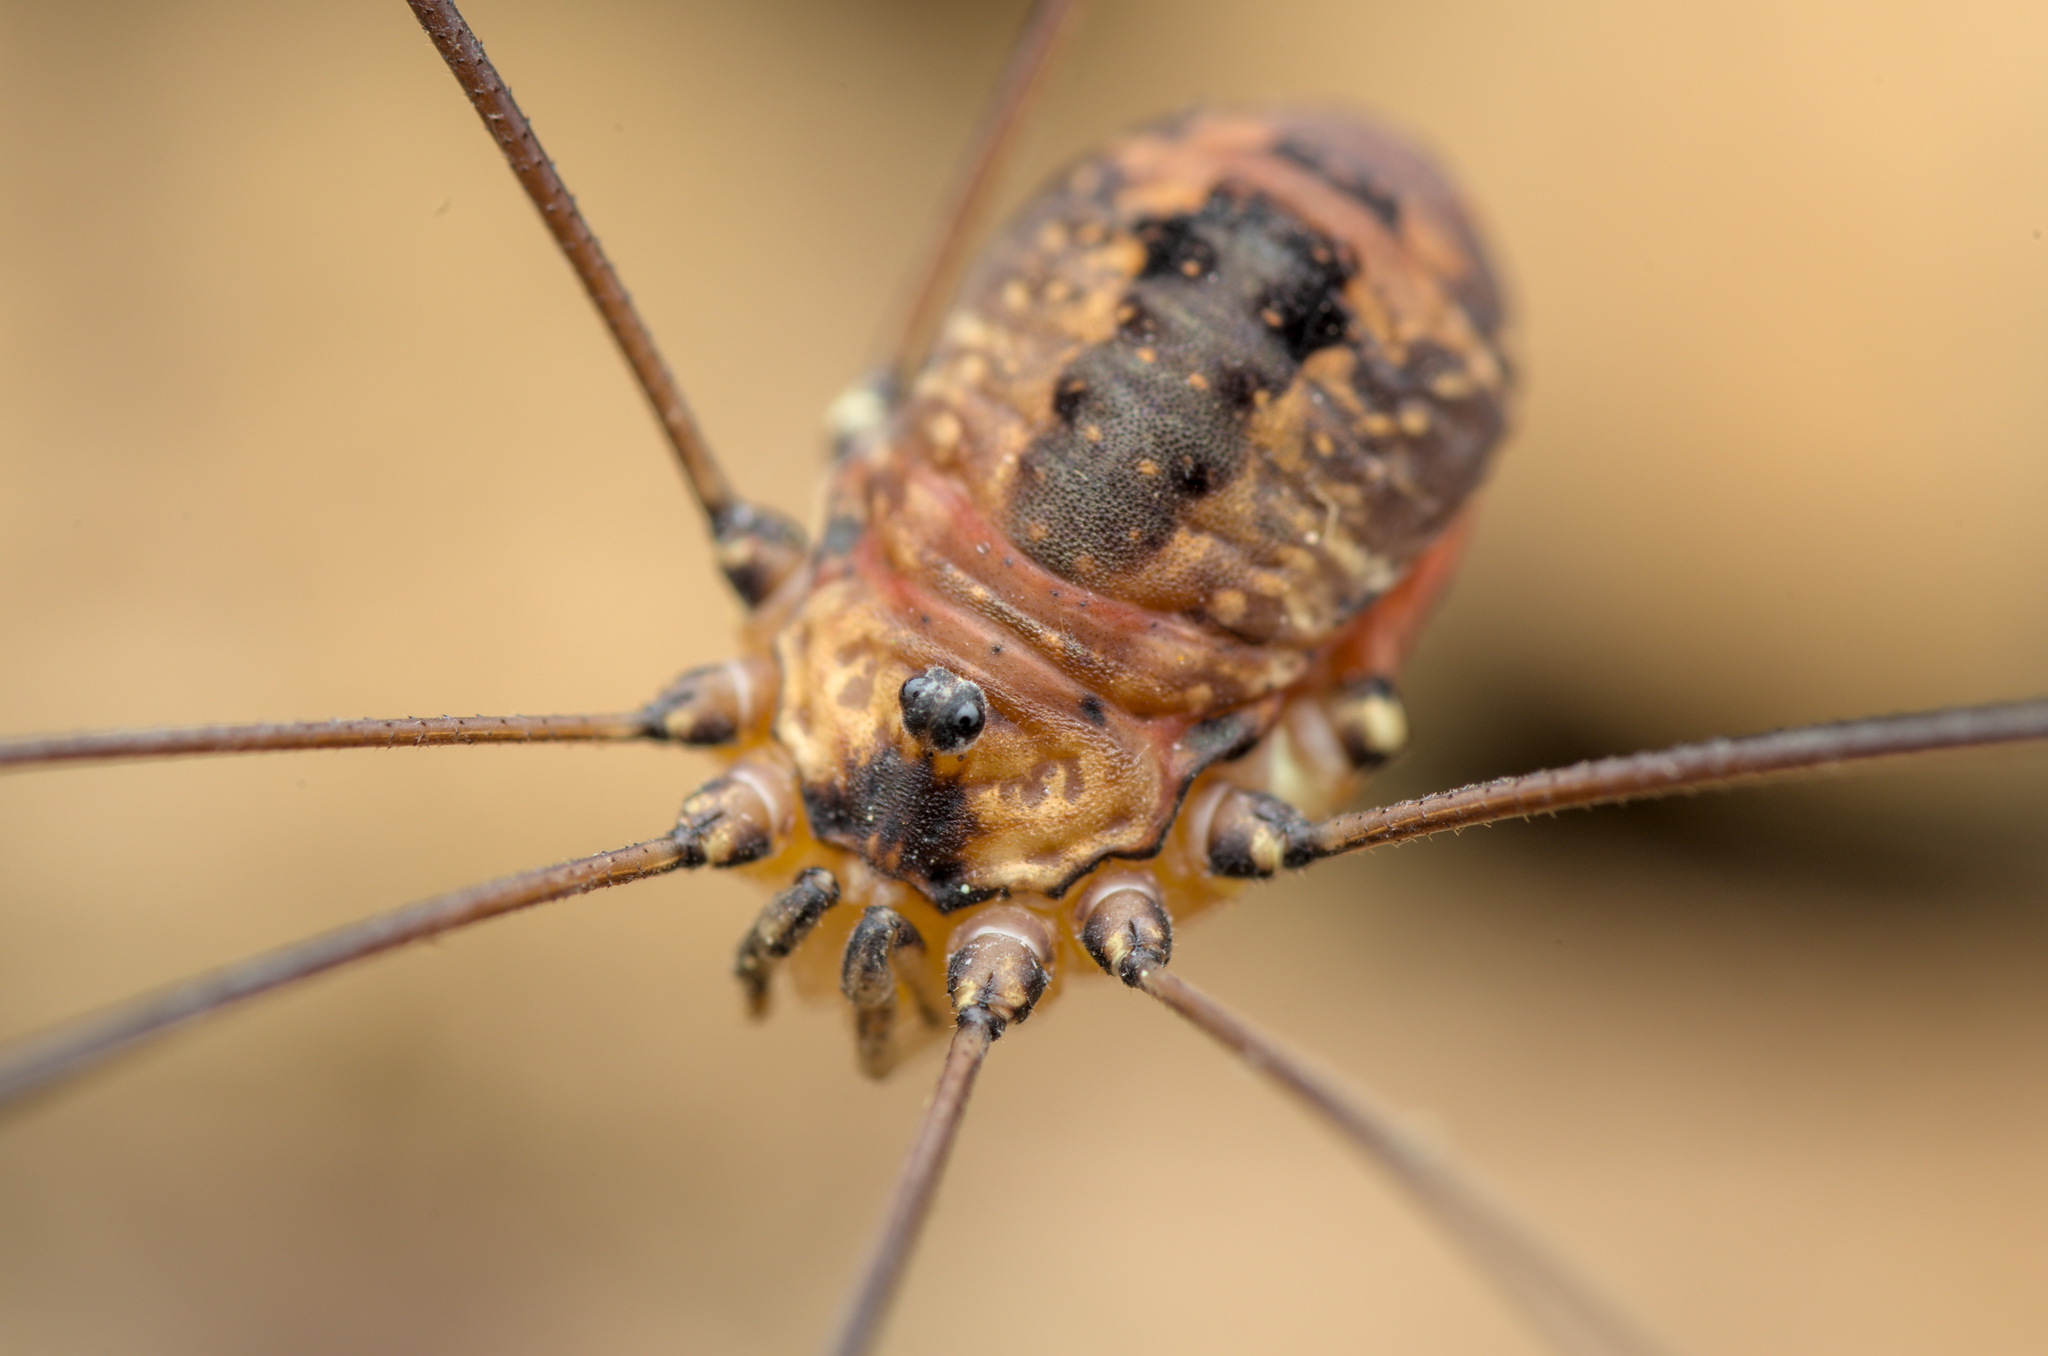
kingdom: Animalia
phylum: Arthropoda
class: Arachnida
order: Opiliones
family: Sclerosomatidae
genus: Leiobunum
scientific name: Leiobunum rotundum
